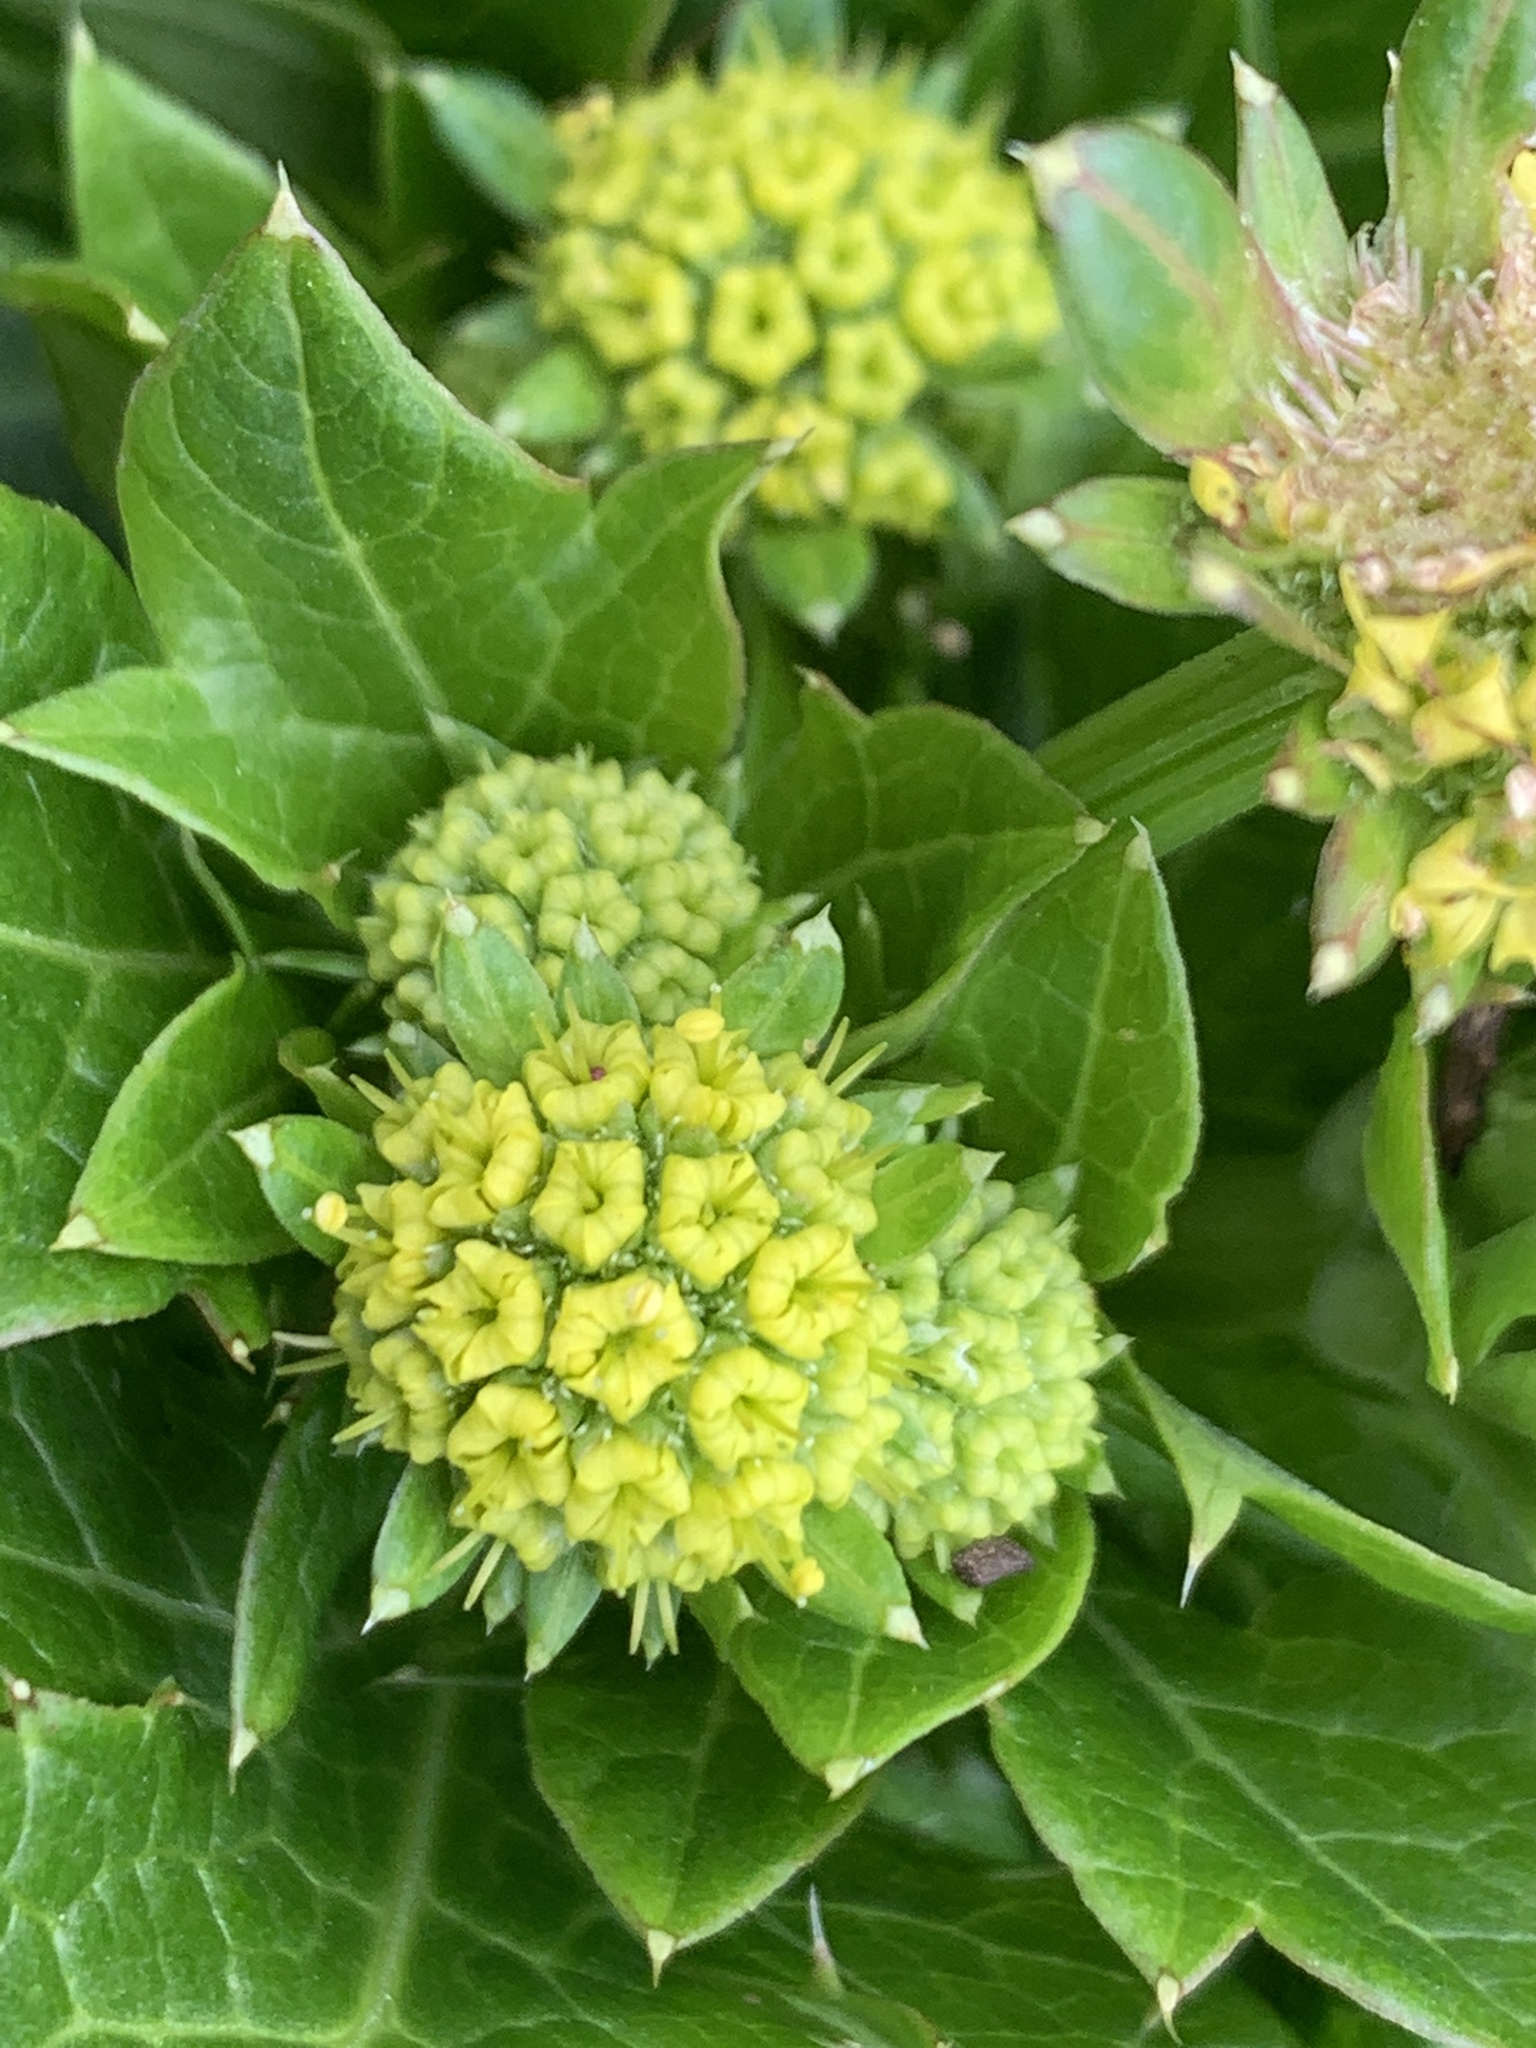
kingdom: Plantae
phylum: Tracheophyta
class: Magnoliopsida
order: Apiales
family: Apiaceae
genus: Sanicula
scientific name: Sanicula crassicaulis
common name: Western snakeroot
